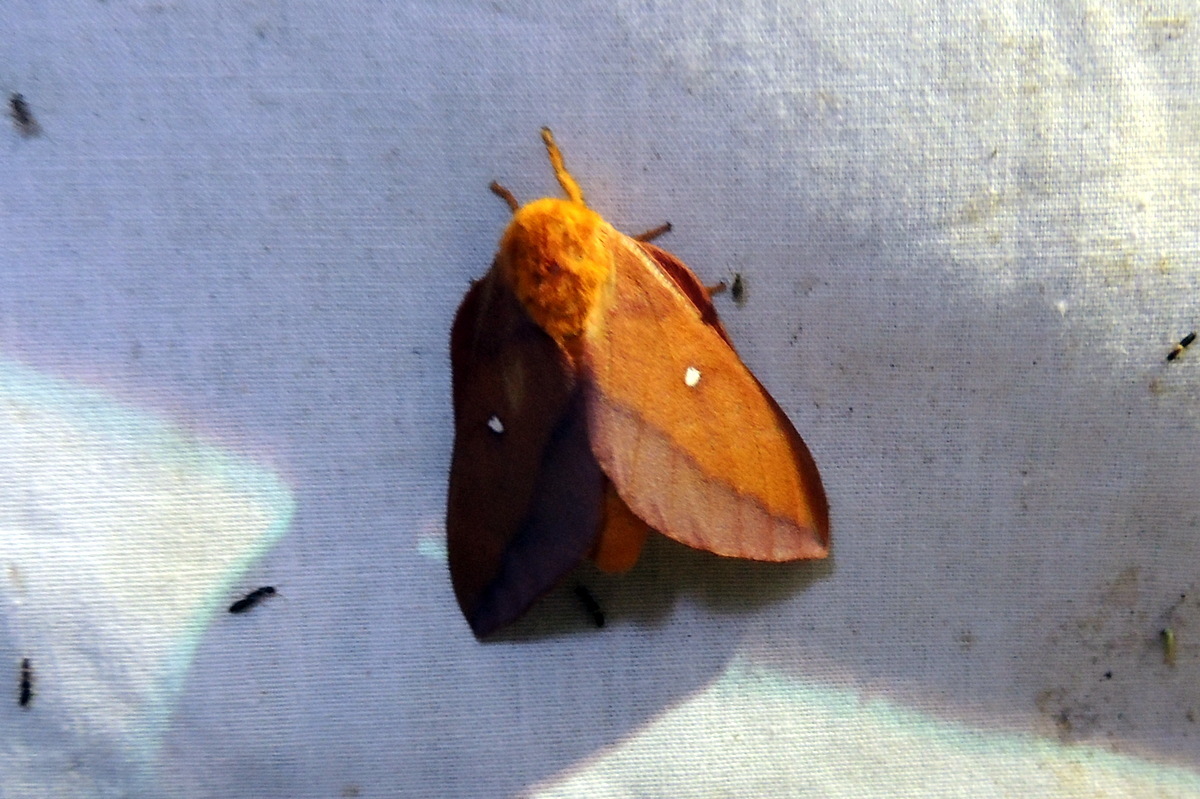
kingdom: Animalia
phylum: Arthropoda
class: Insecta
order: Lepidoptera
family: Saturniidae
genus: Anisota
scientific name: Anisota virginiensis
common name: Pink striped oakworm moth
